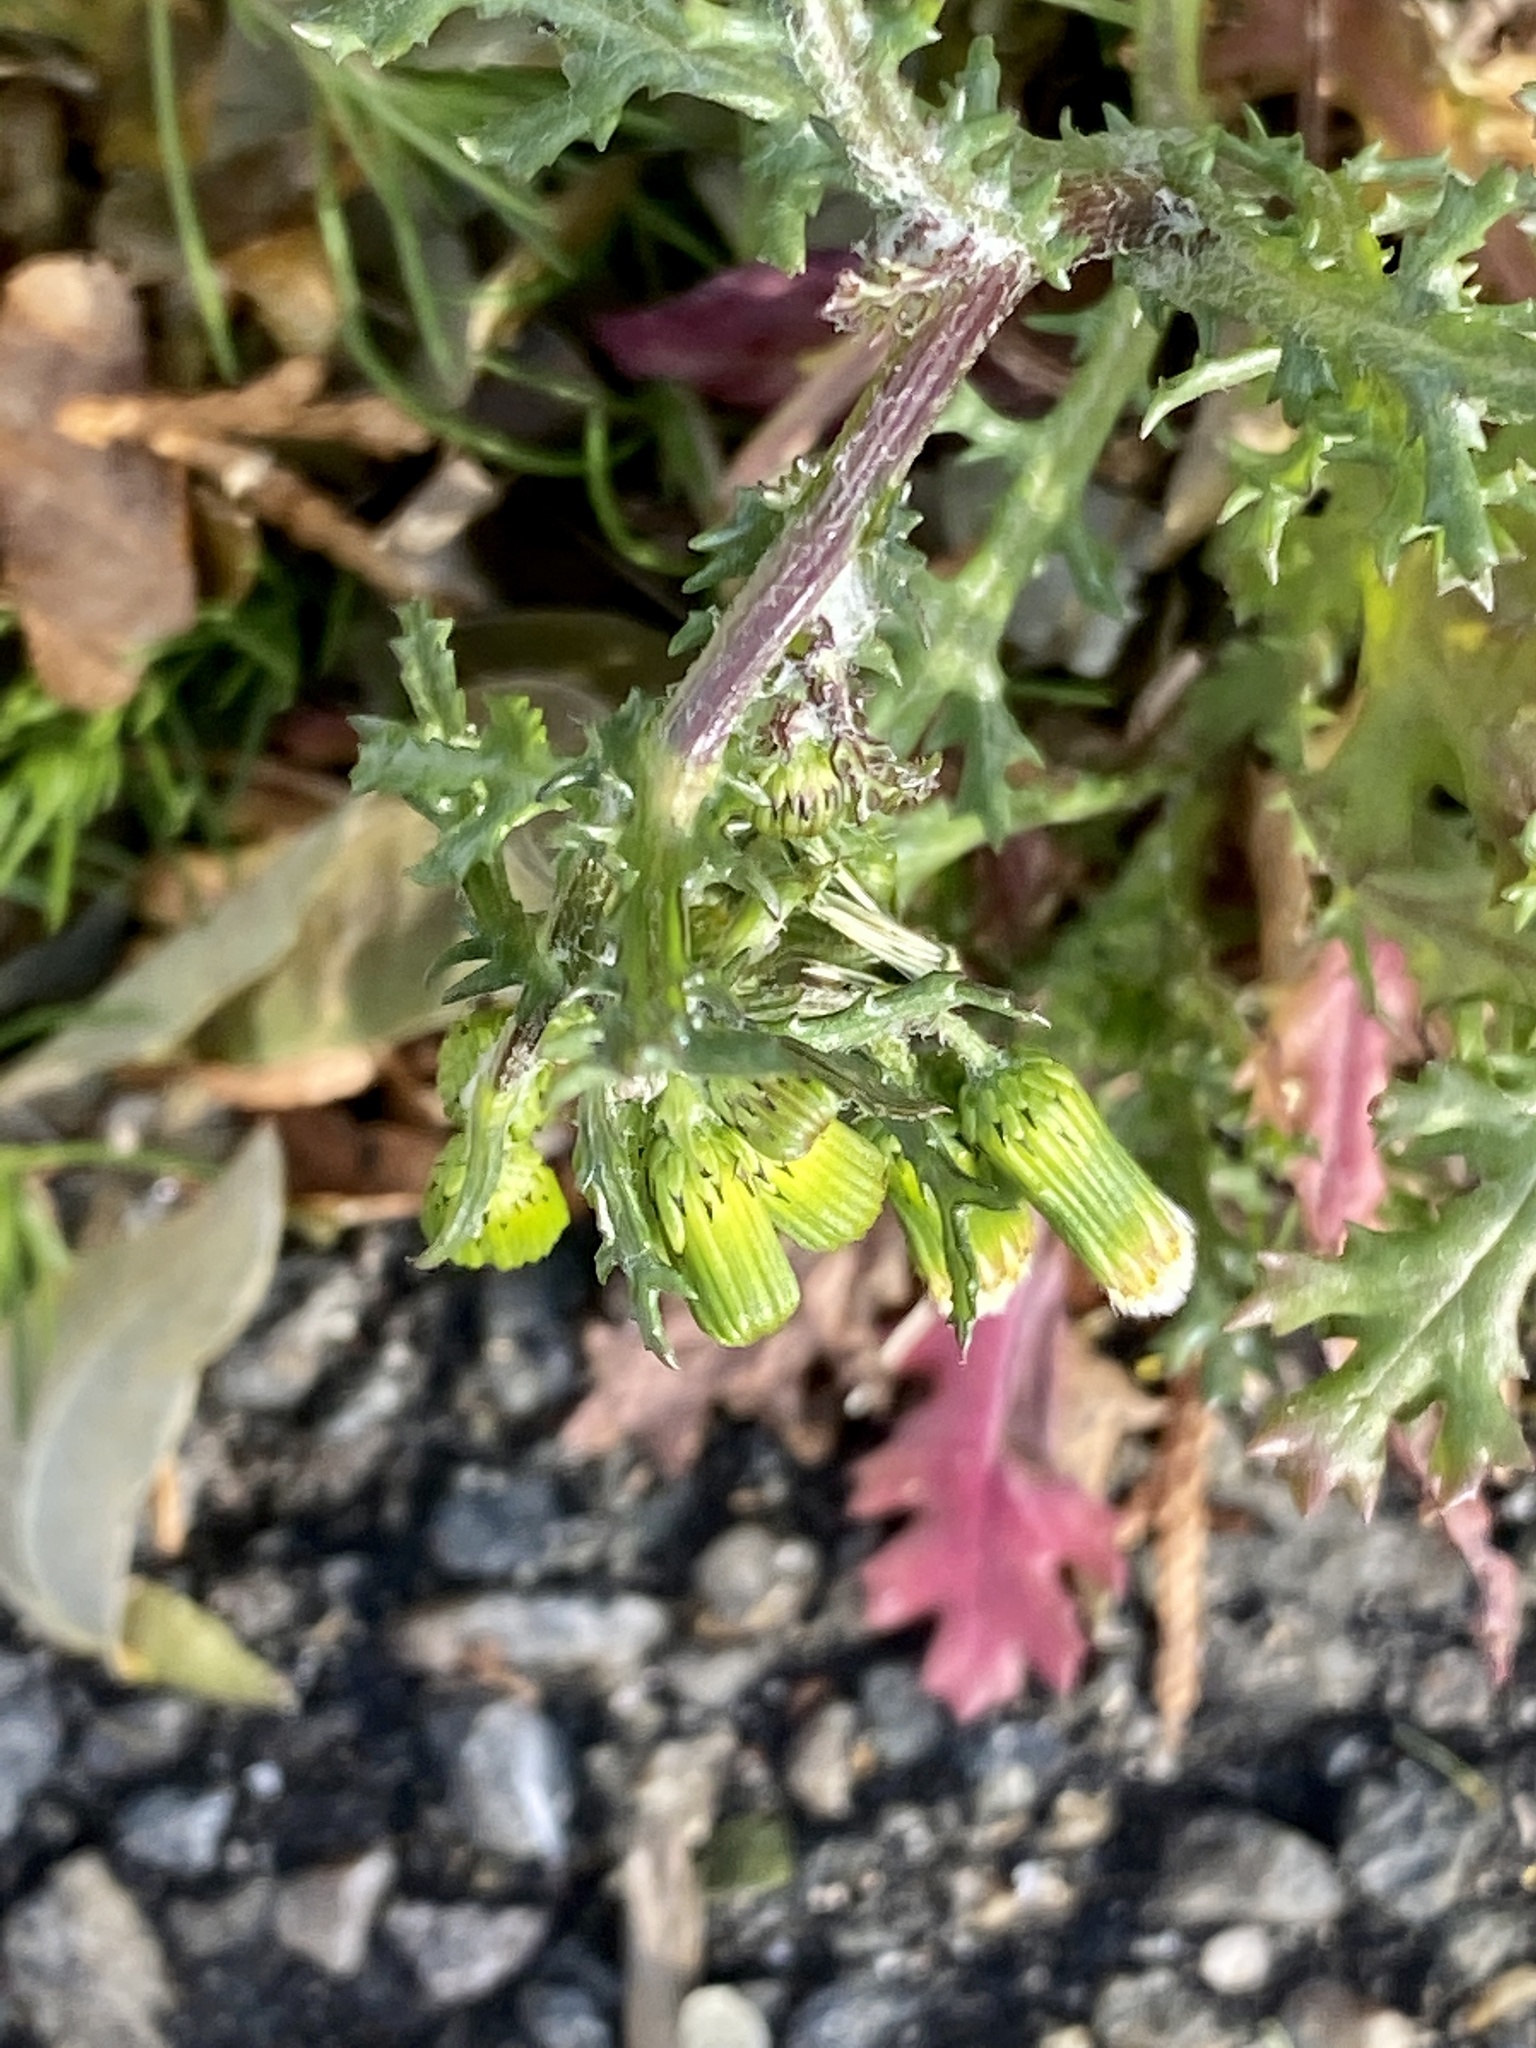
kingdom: Plantae
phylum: Tracheophyta
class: Magnoliopsida
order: Asterales
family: Asteraceae
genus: Senecio
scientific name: Senecio vulgaris
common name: Old-man-in-the-spring
